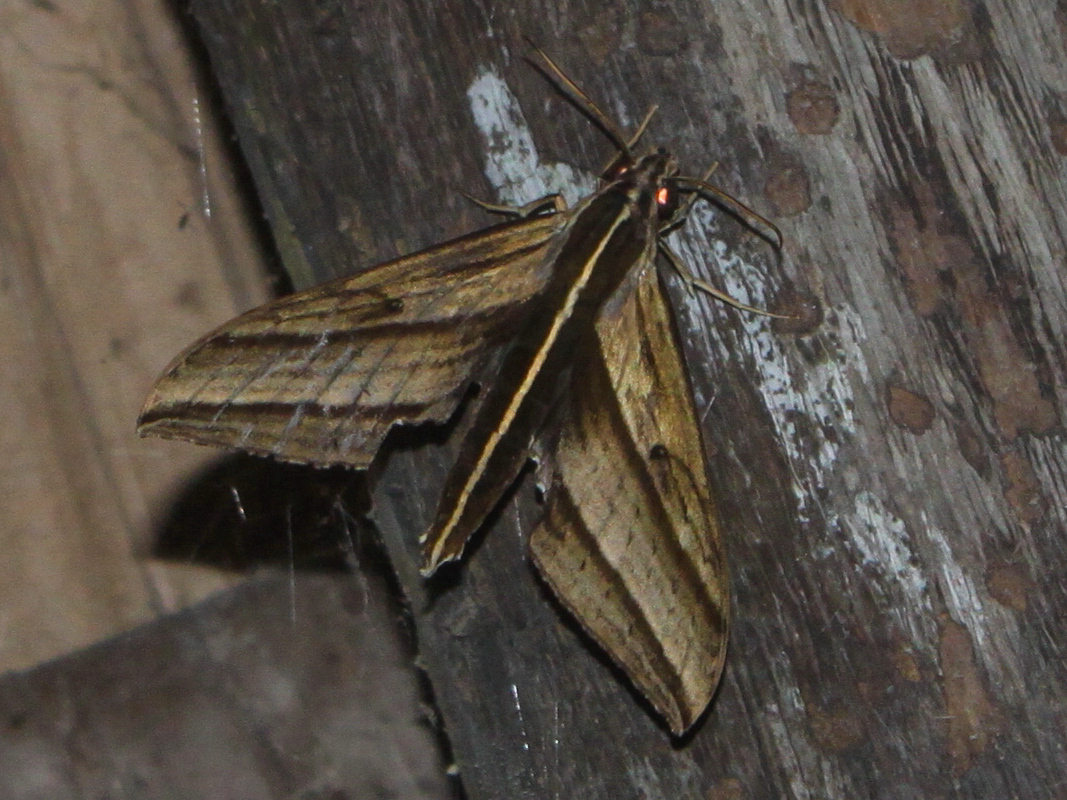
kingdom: Animalia
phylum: Arthropoda
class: Insecta
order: Lepidoptera
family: Sphingidae
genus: Elibia
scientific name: Elibia dolichus
